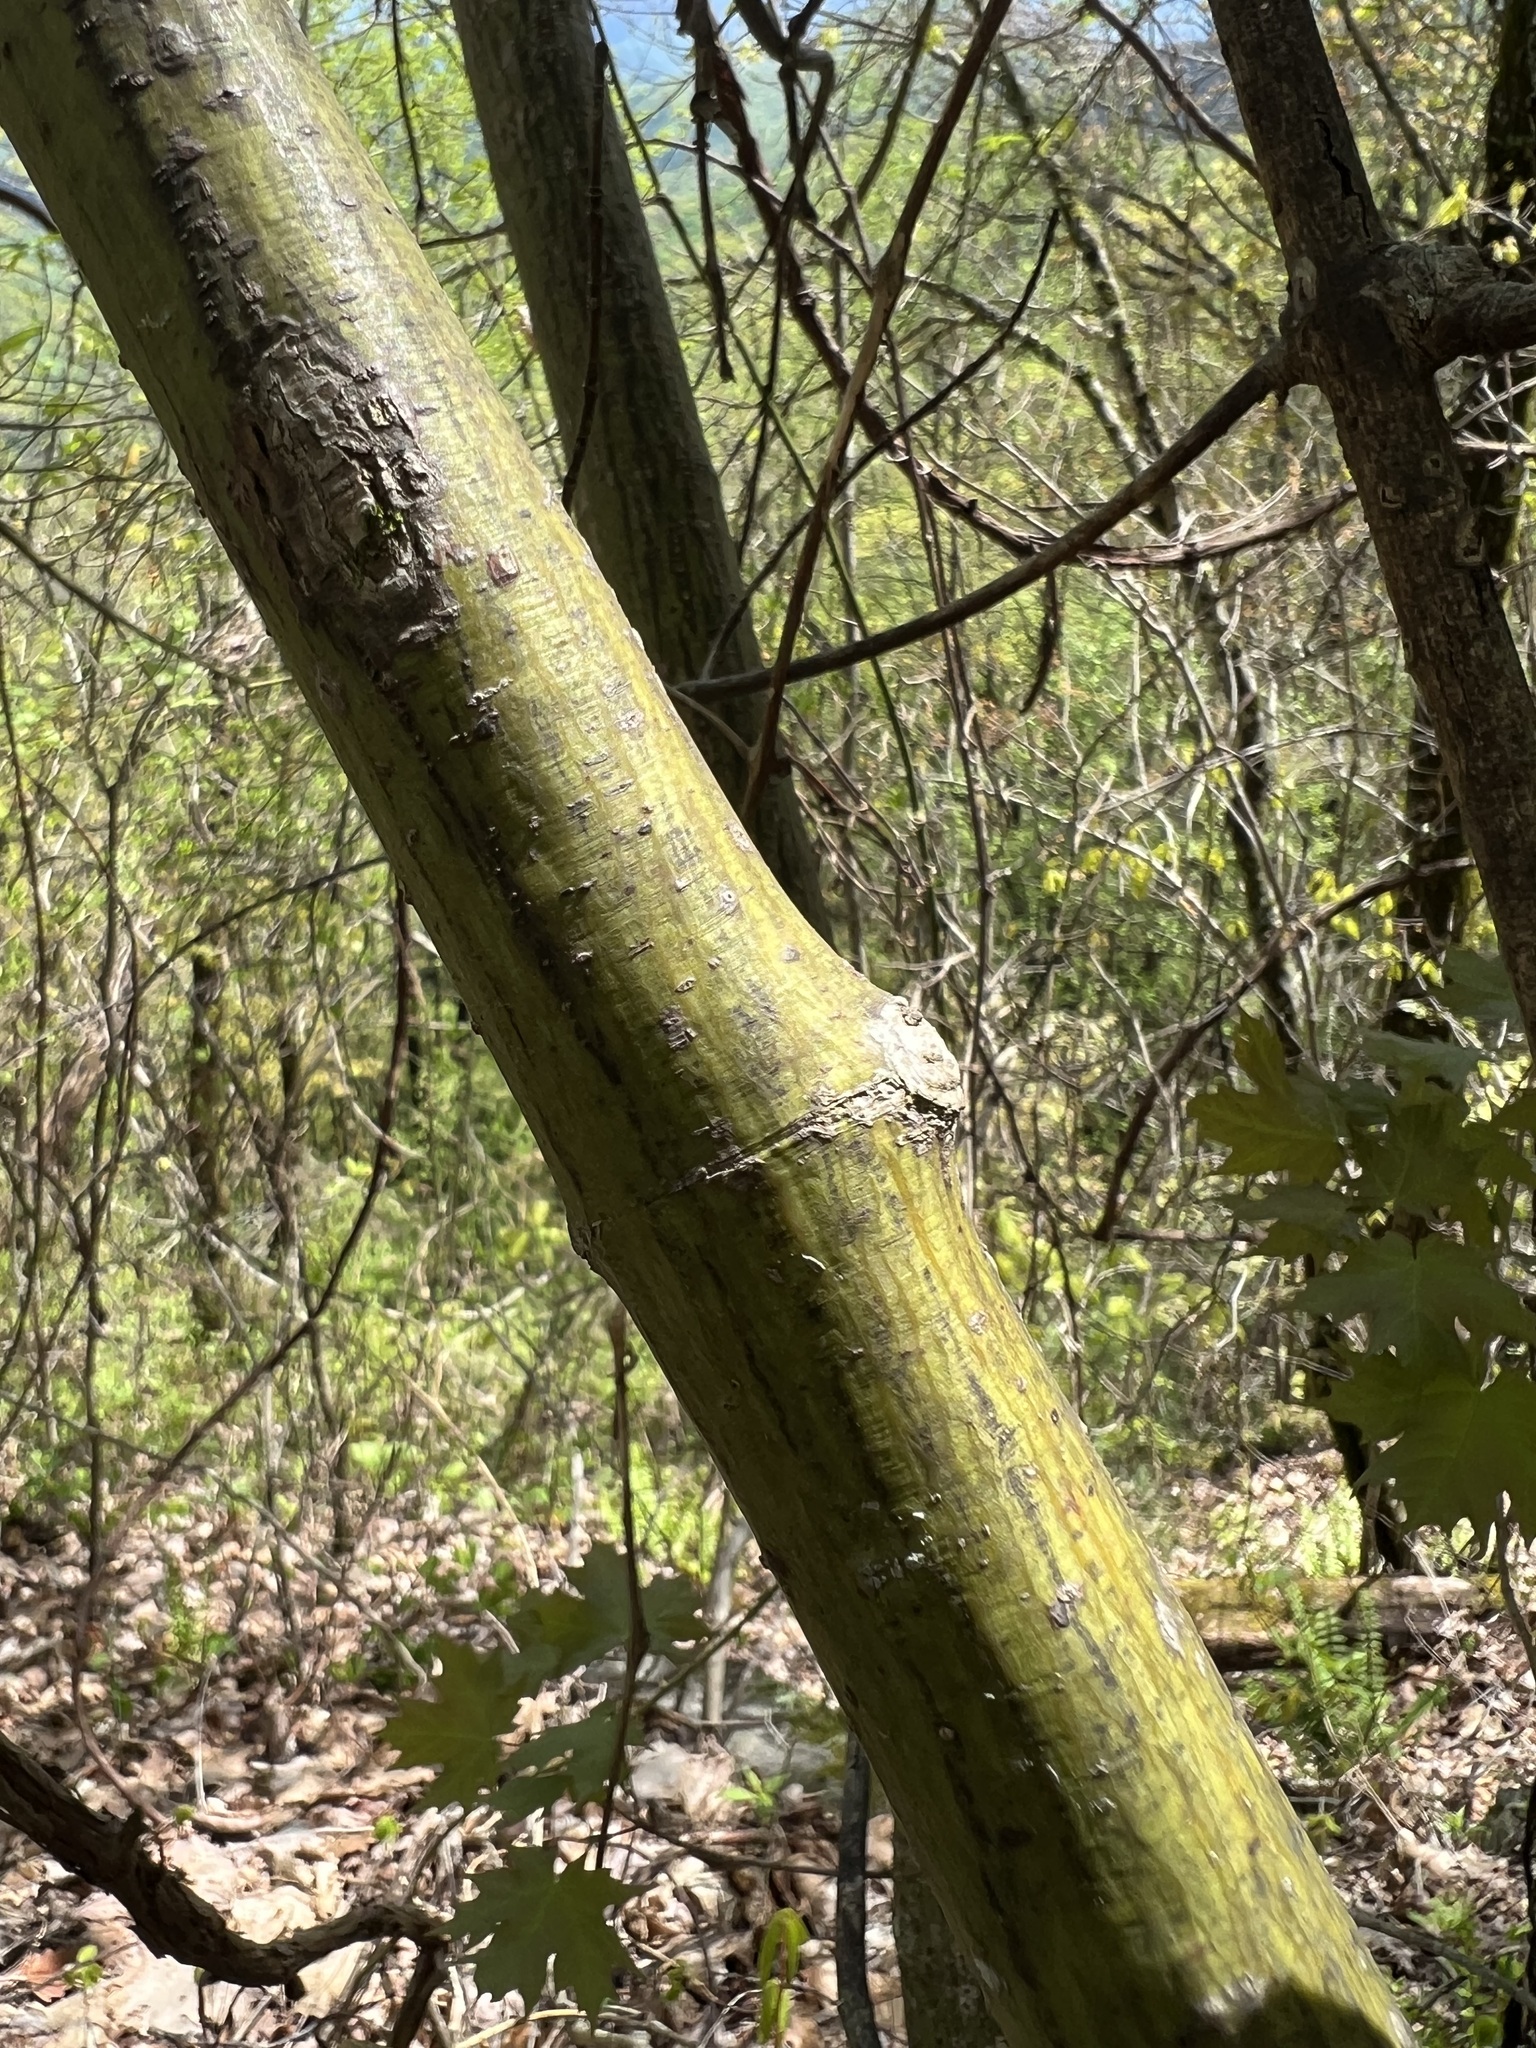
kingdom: Plantae
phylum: Tracheophyta
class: Magnoliopsida
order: Sapindales
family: Sapindaceae
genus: Acer
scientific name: Acer pensylvanicum
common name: Moosewood
